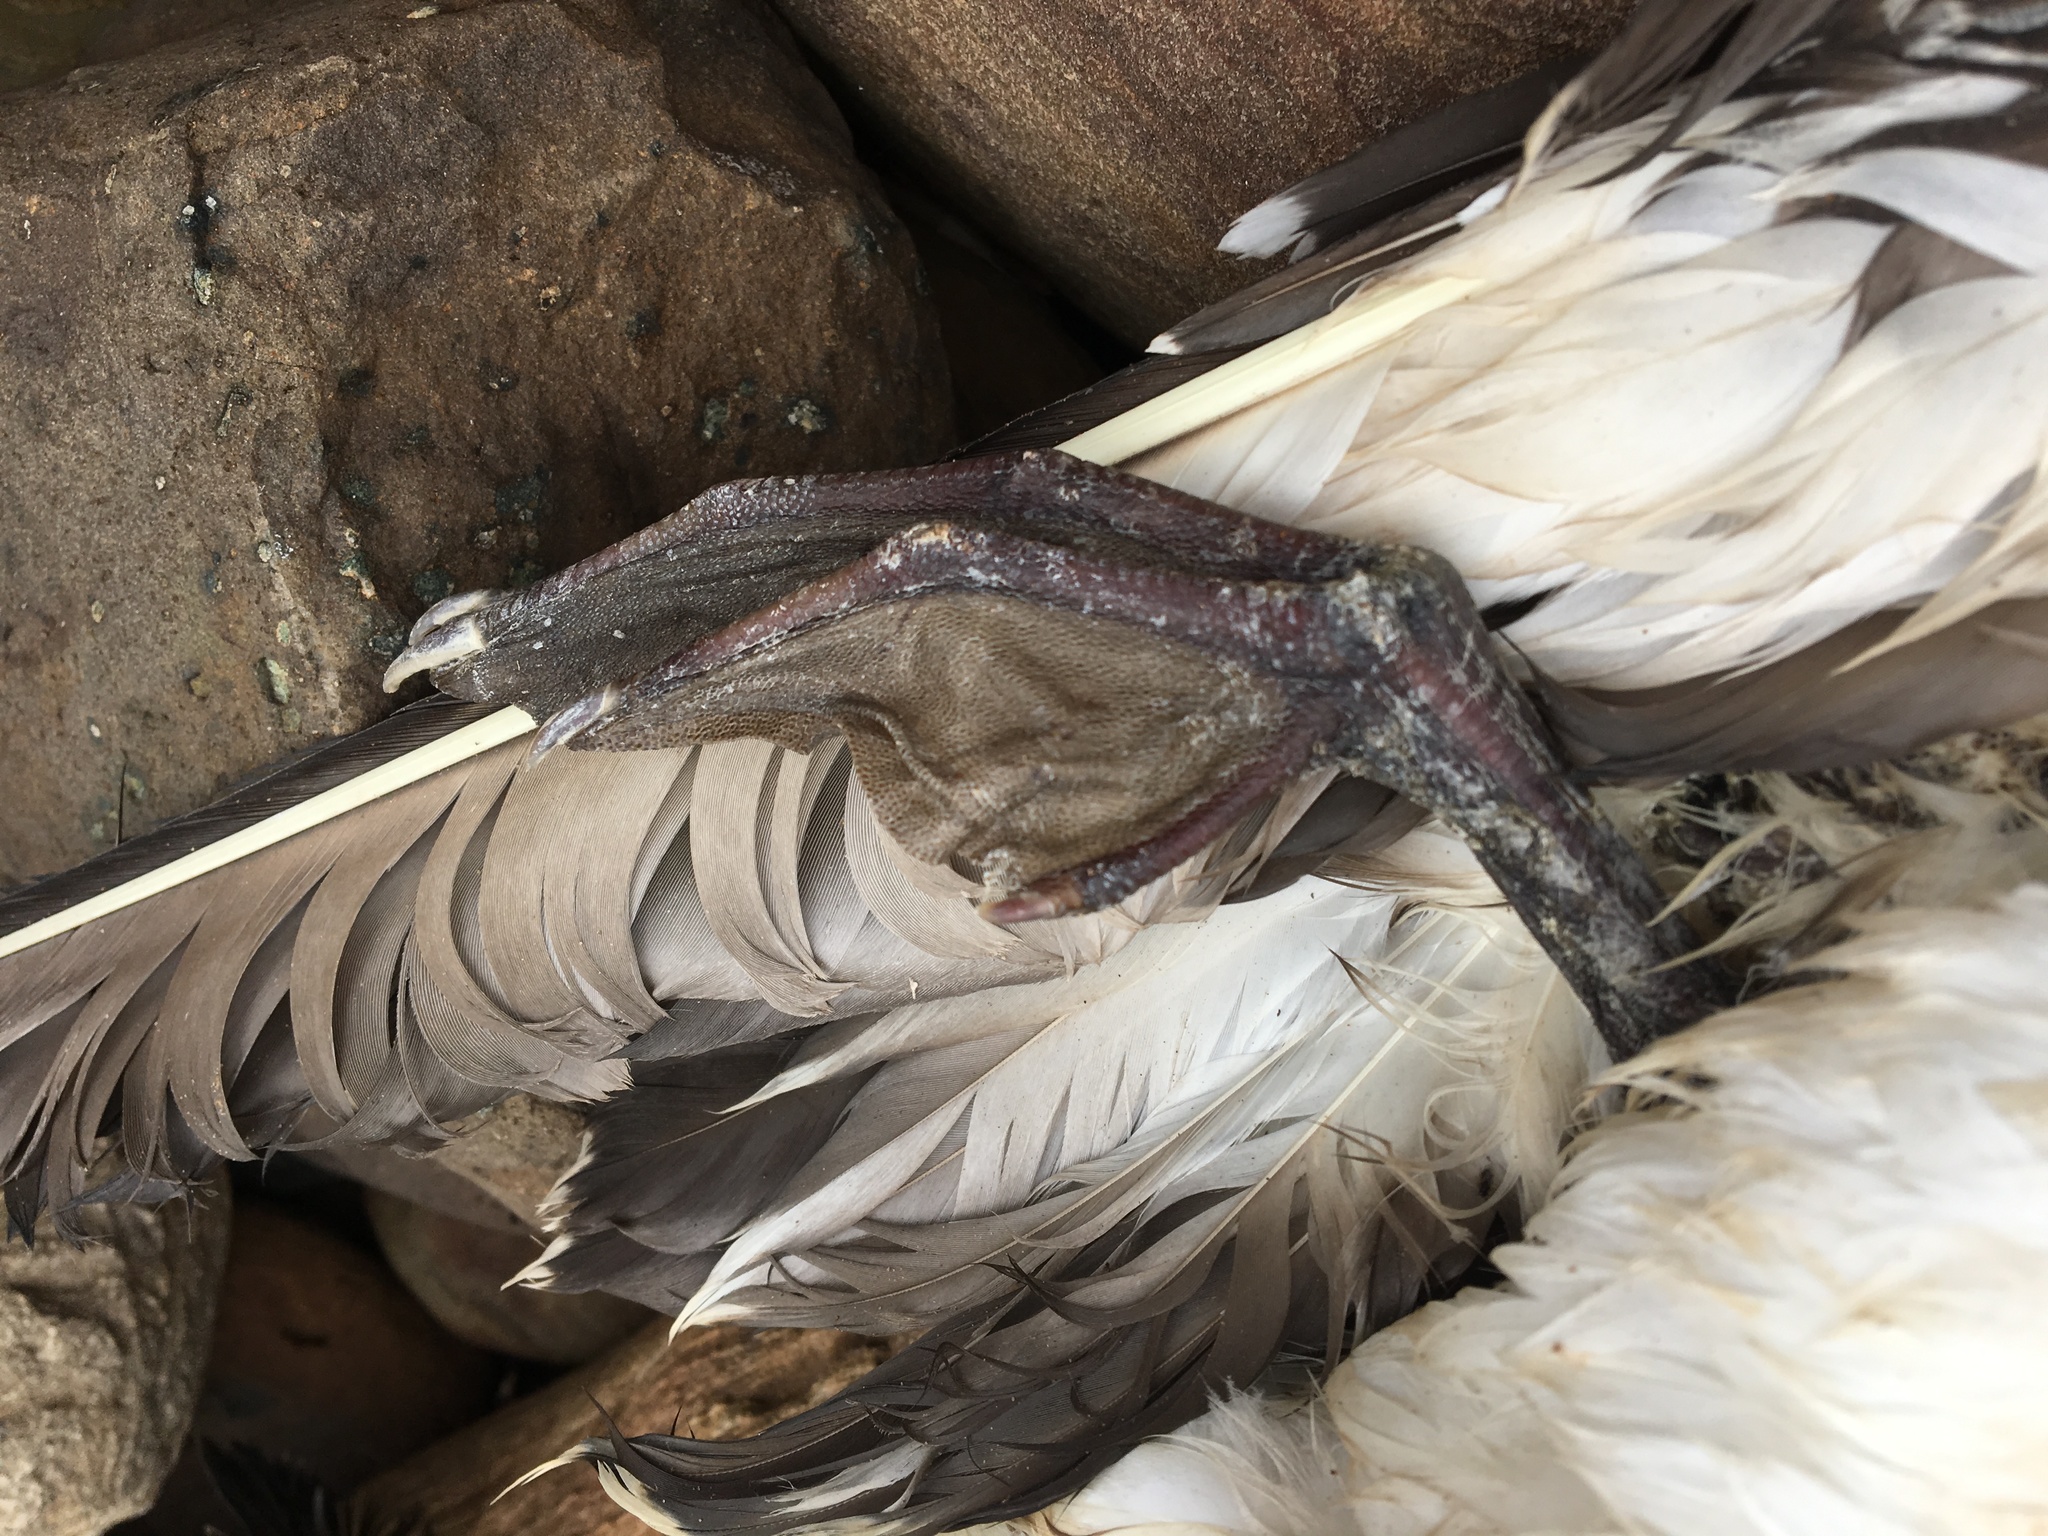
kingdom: Animalia
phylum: Chordata
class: Aves
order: Suliformes
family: Sulidae
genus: Morus
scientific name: Morus serrator
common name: Australasian gannet
